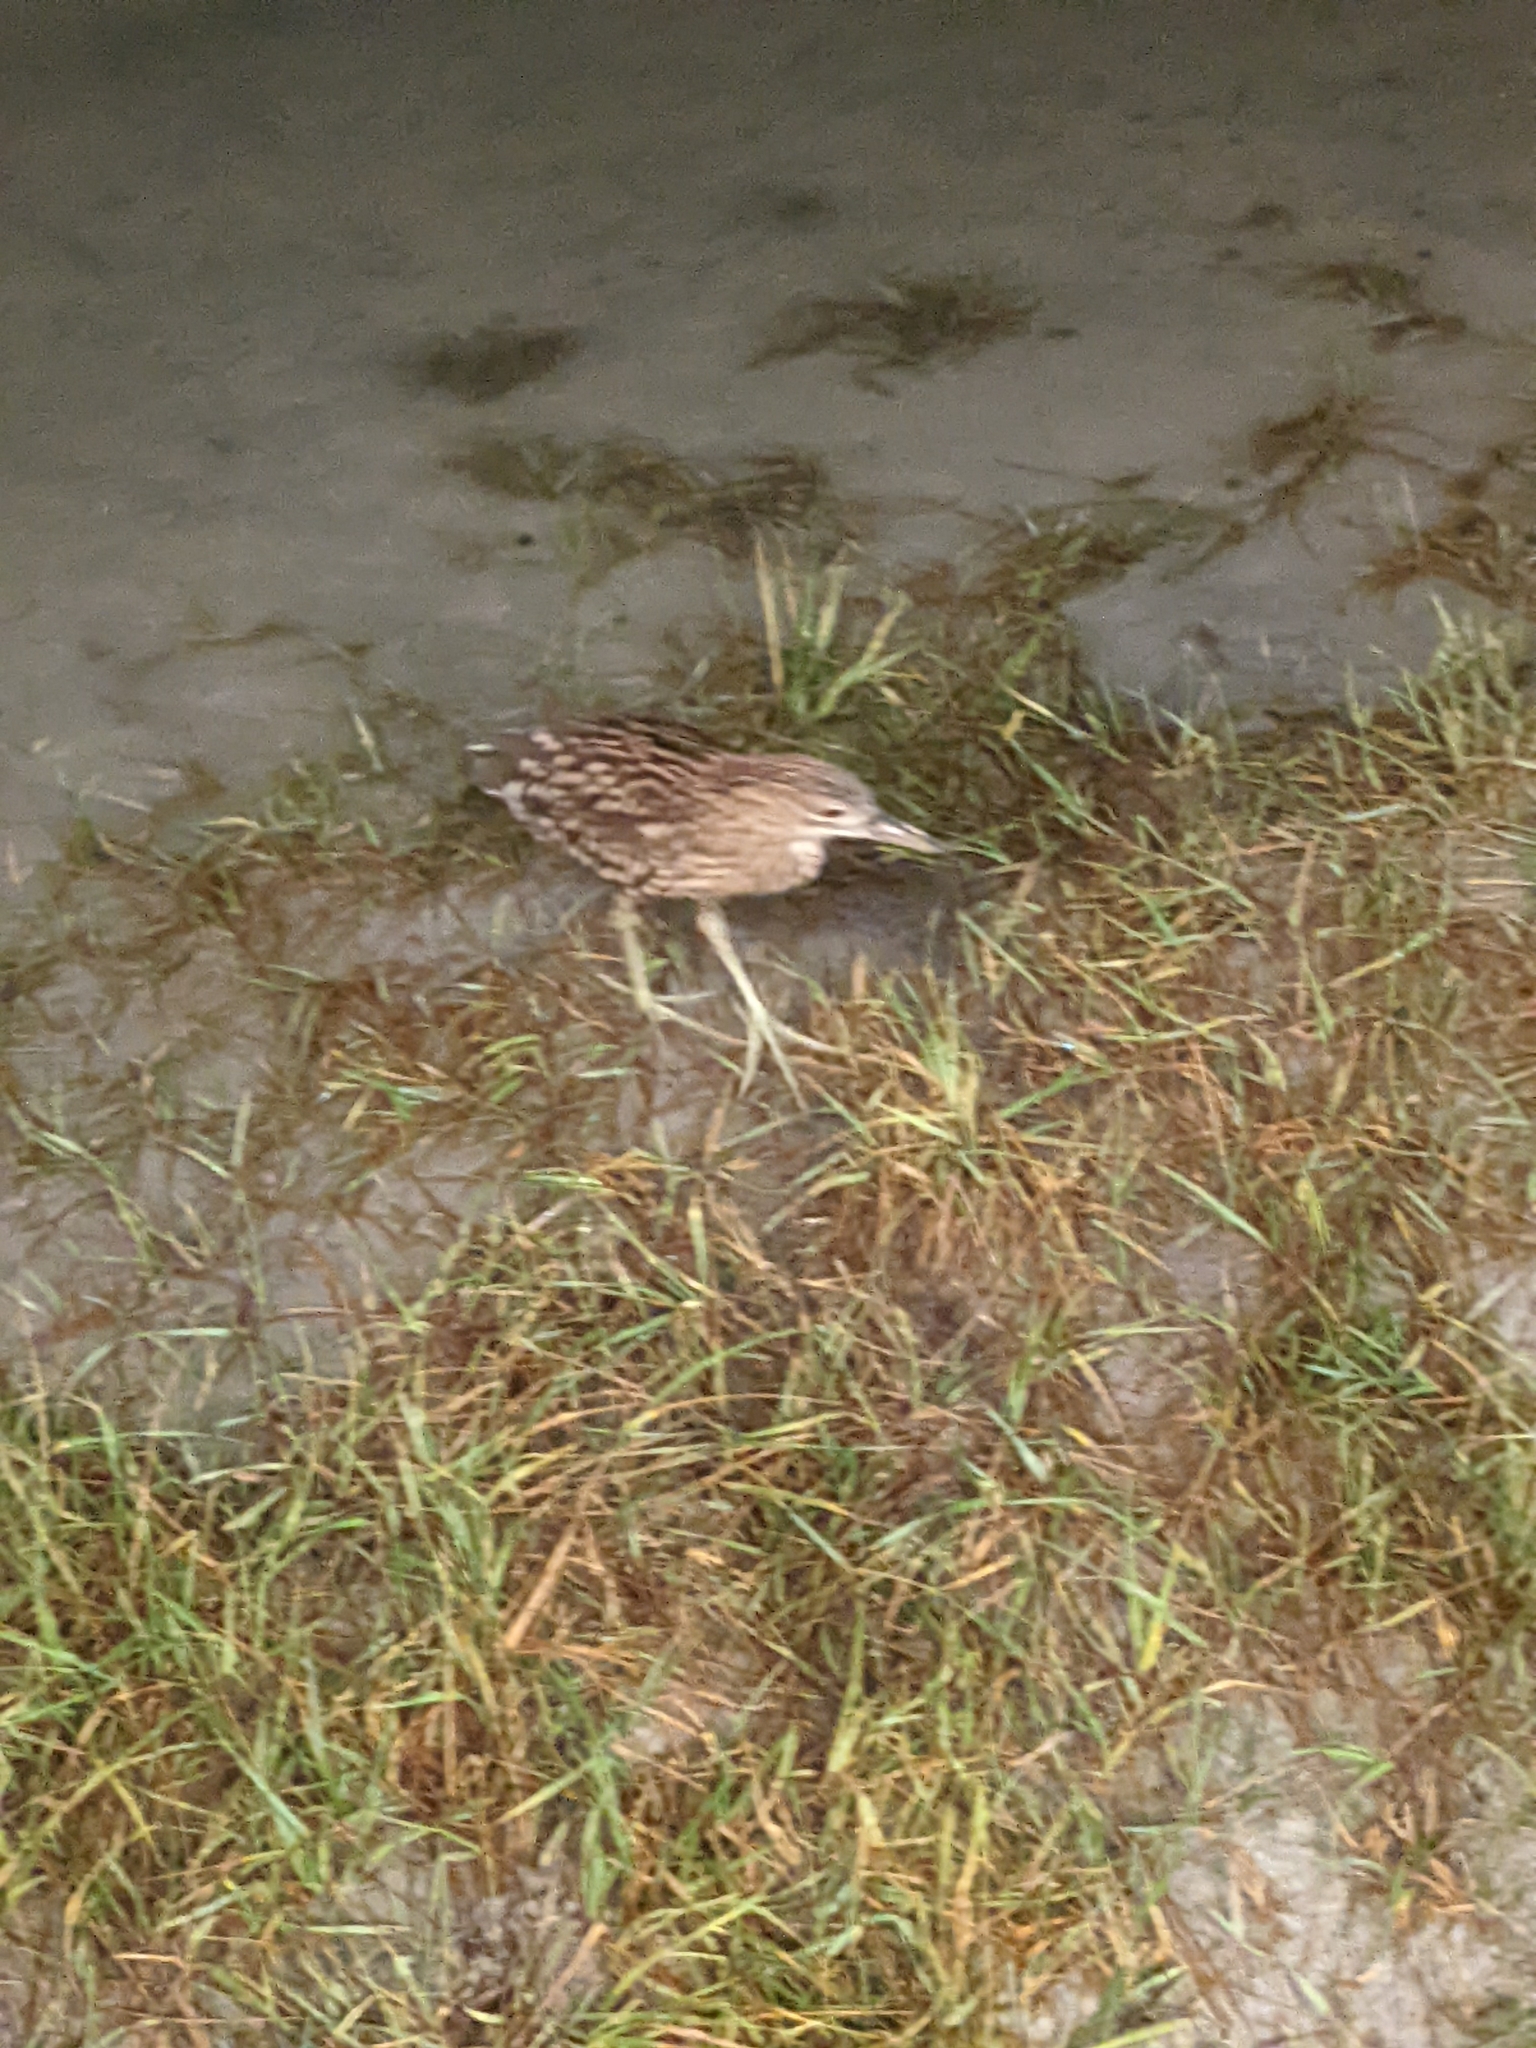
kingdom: Animalia
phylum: Chordata
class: Aves
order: Pelecaniformes
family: Ardeidae
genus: Nycticorax
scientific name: Nycticorax nycticorax
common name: Black-crowned night heron
